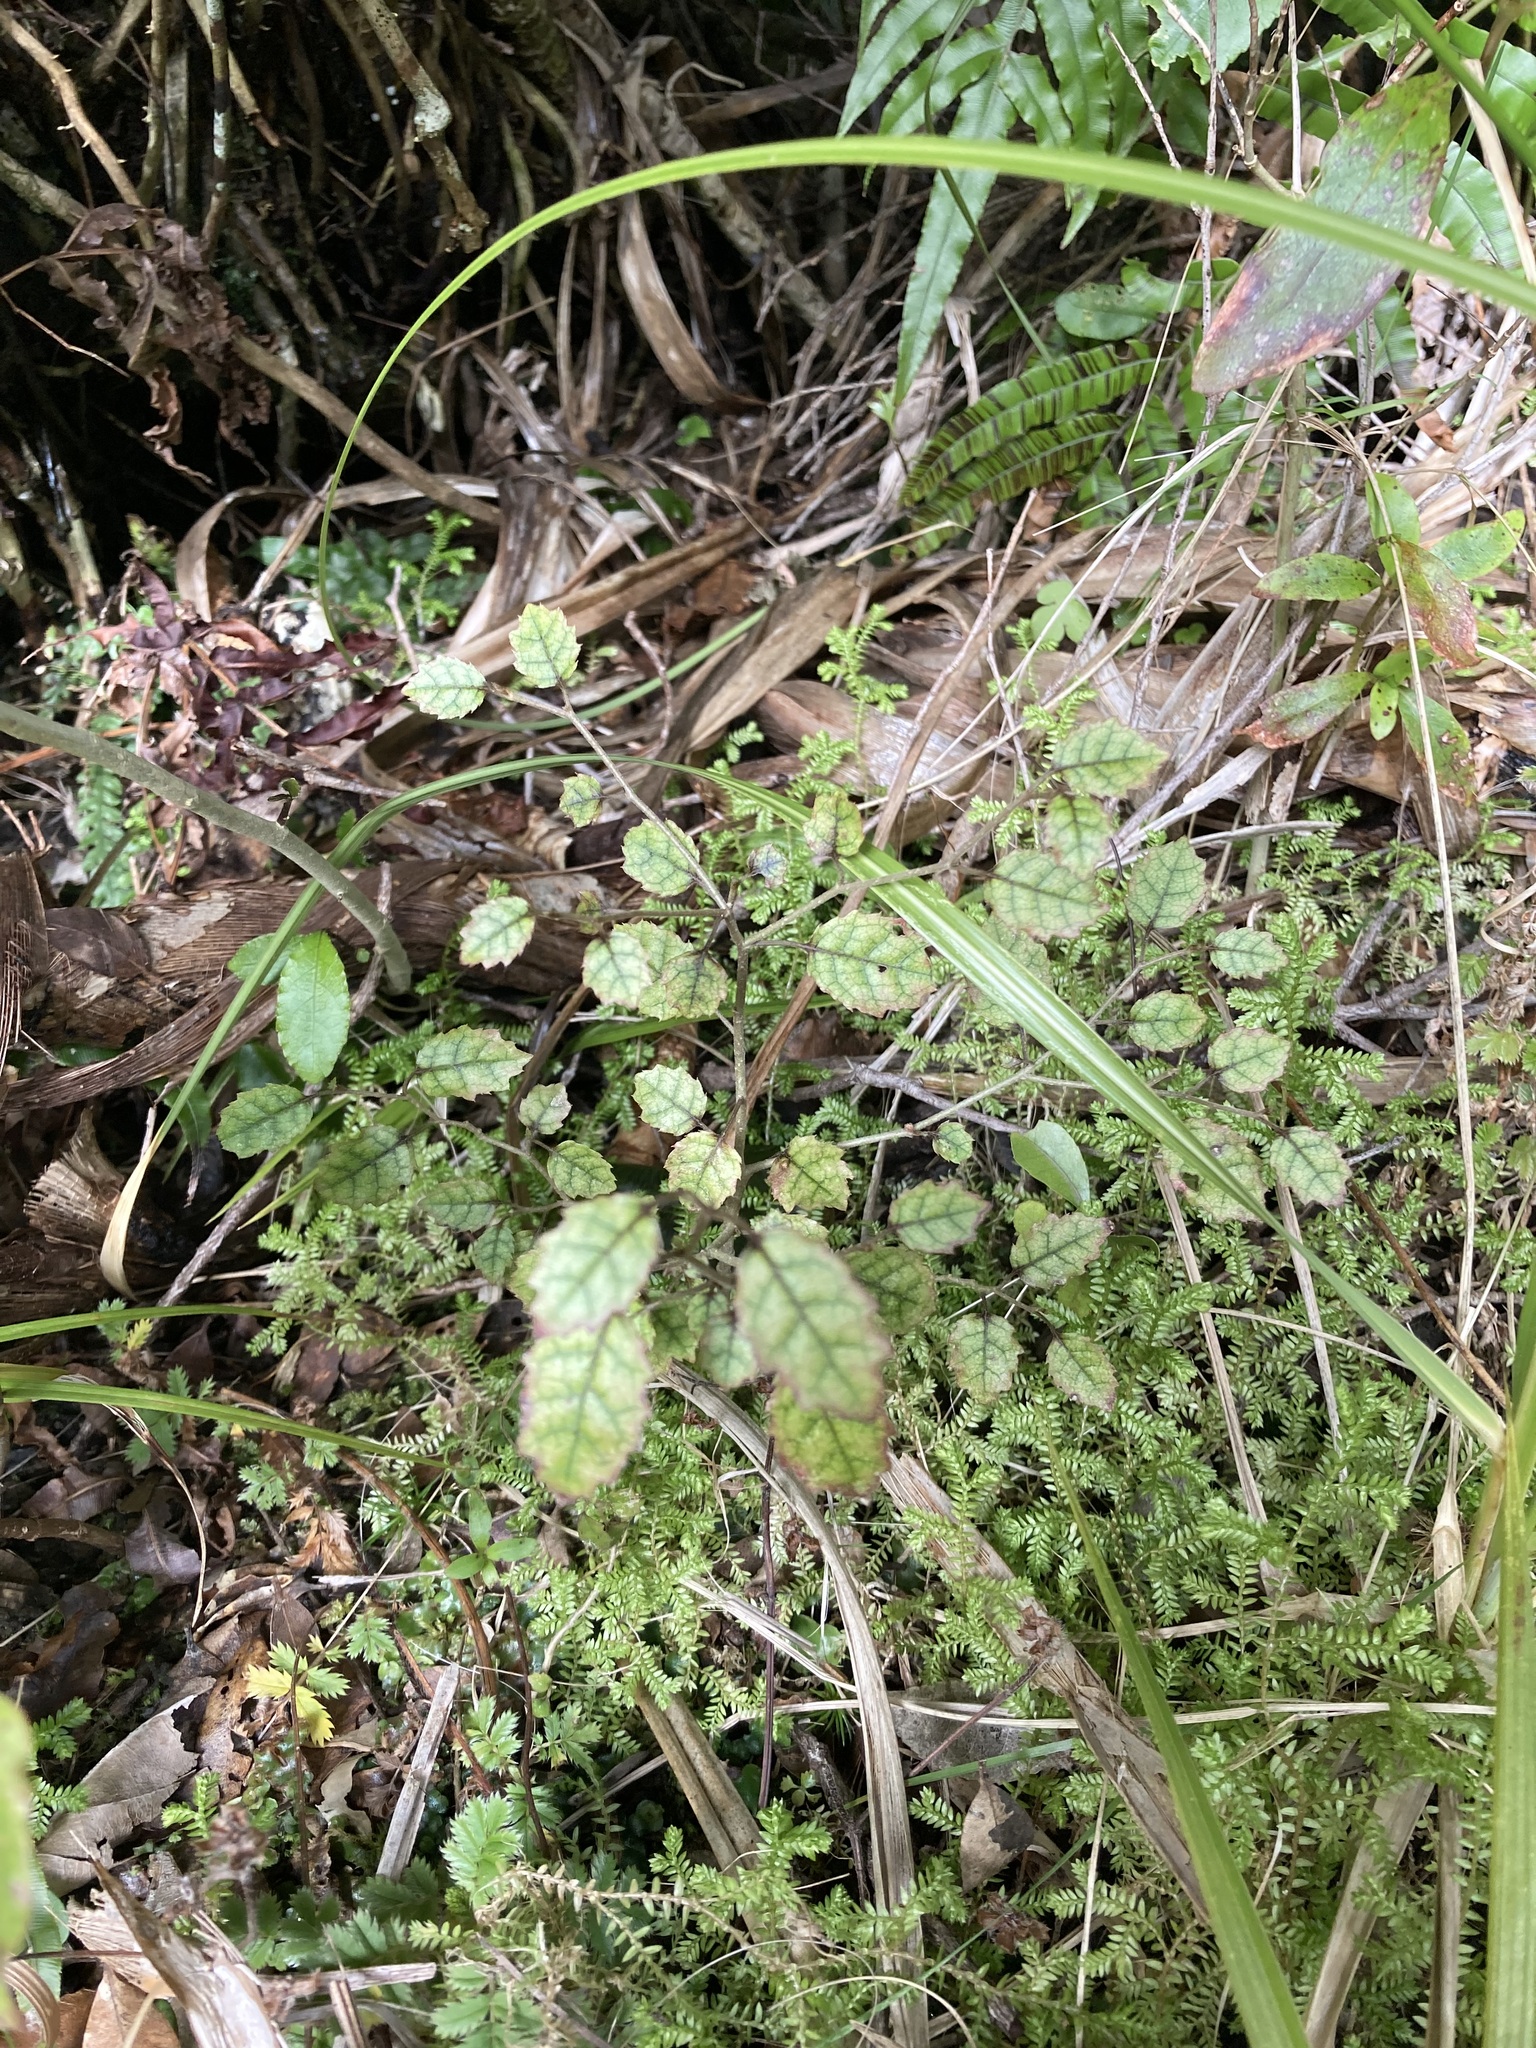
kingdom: Plantae
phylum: Tracheophyta
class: Magnoliopsida
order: Asterales
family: Rousseaceae
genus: Carpodetus
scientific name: Carpodetus serratus
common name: White mapau
